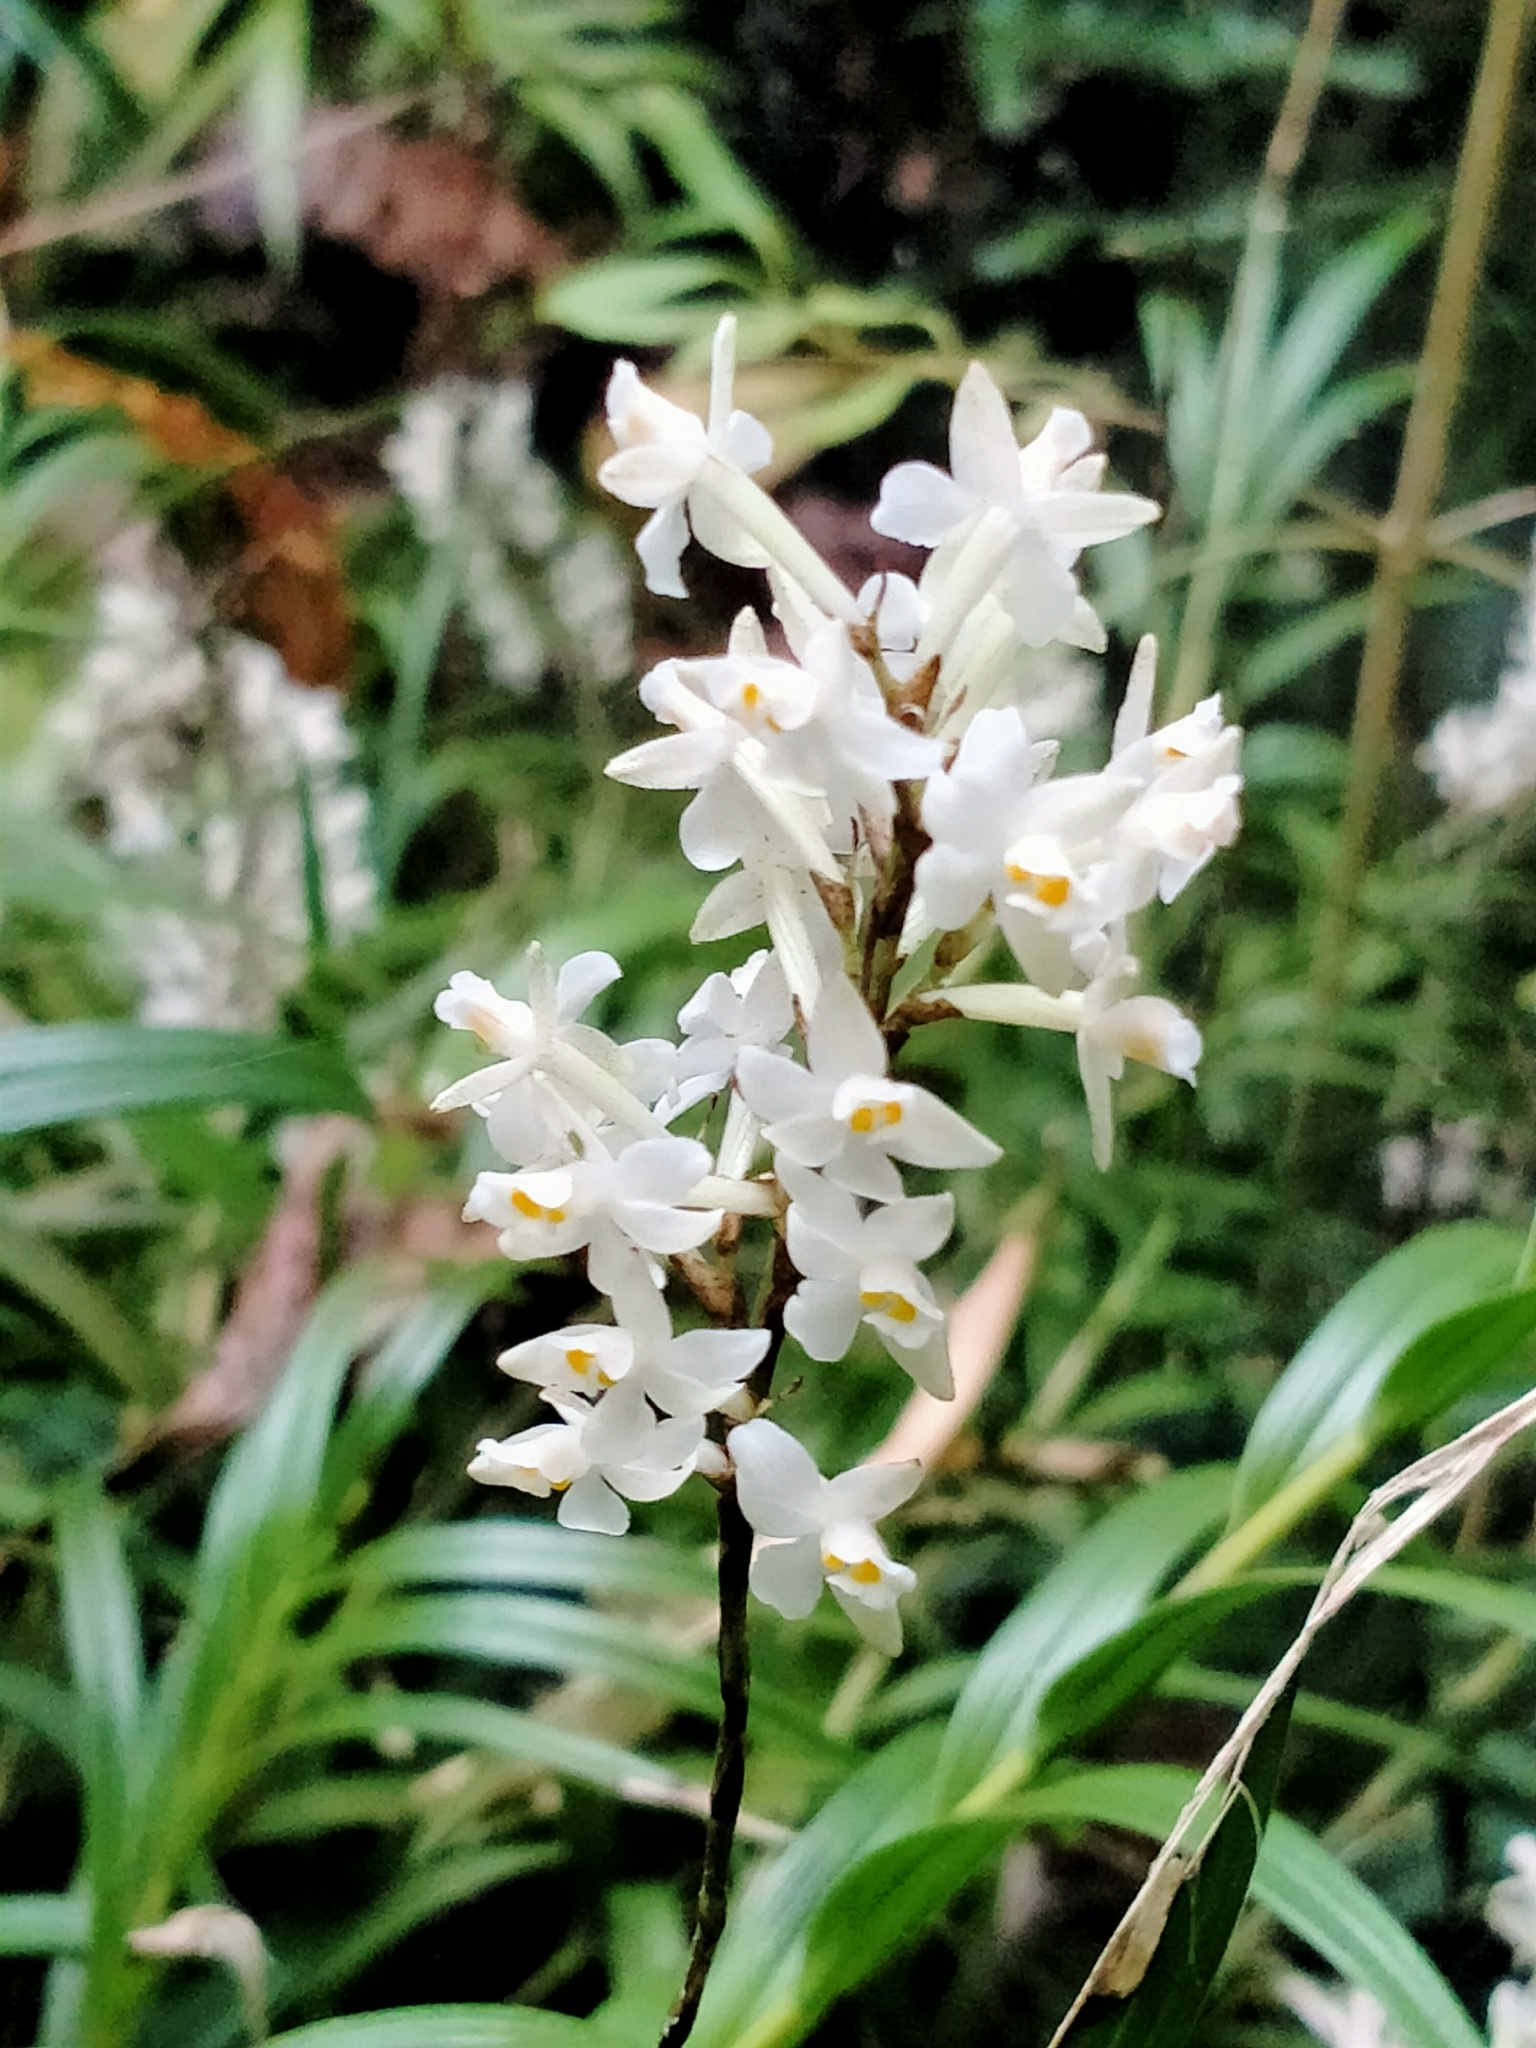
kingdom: Plantae
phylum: Tracheophyta
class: Liliopsida
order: Asparagales
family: Orchidaceae
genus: Earina
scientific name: Earina autumnalis
